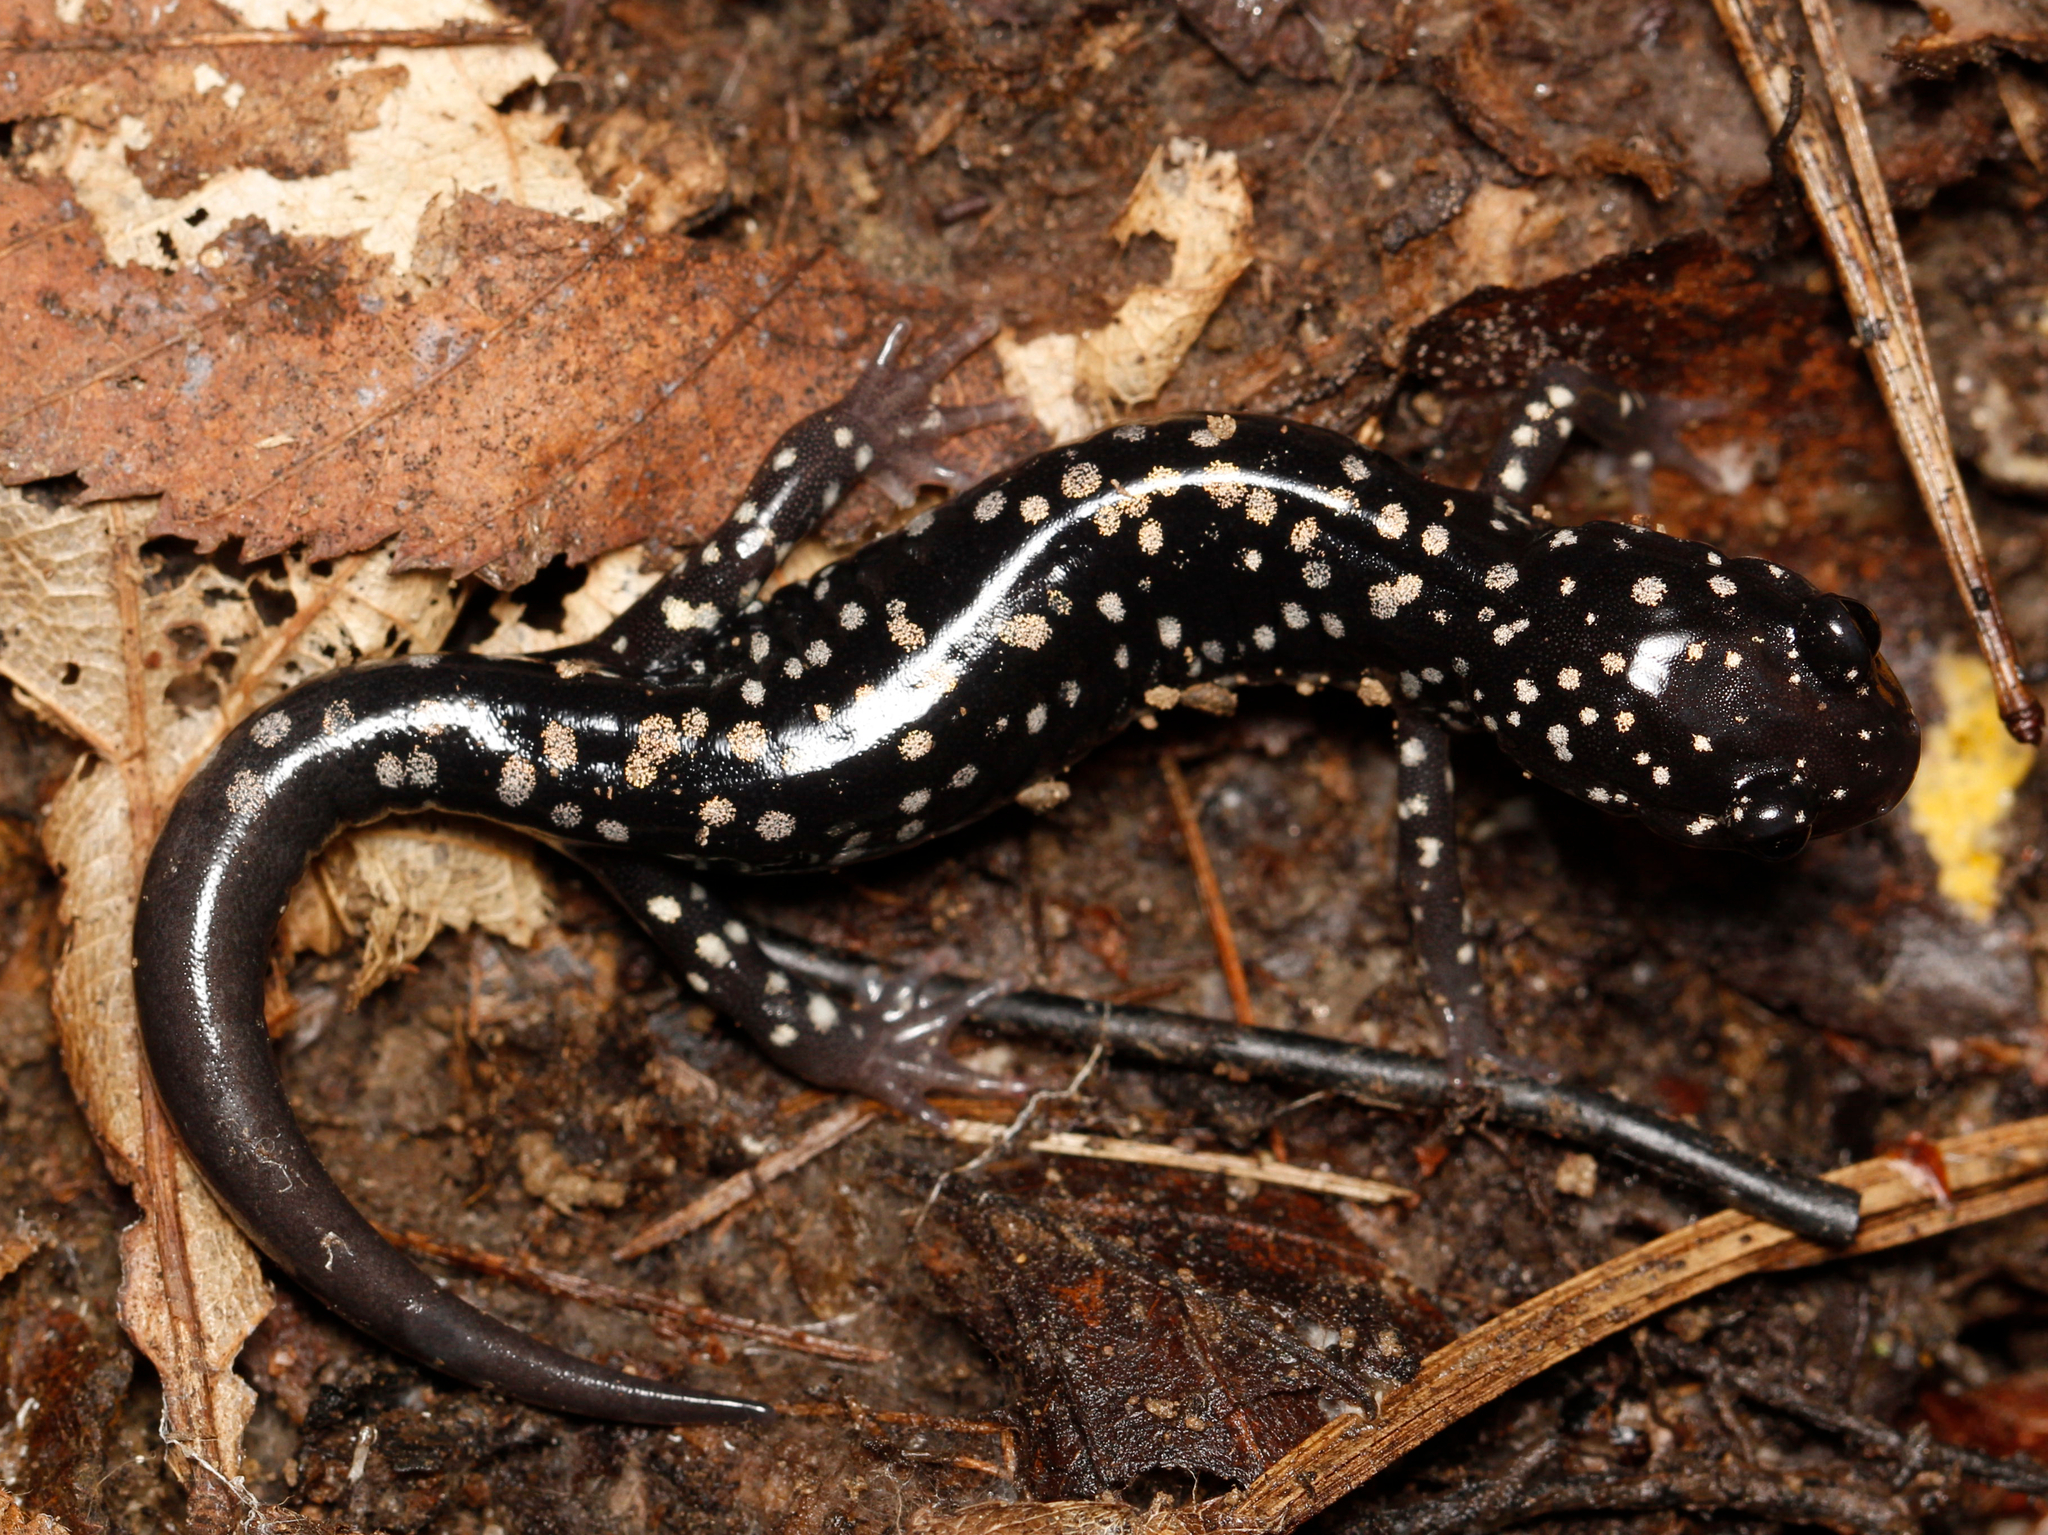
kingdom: Animalia
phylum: Chordata
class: Amphibia
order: Caudata
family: Plethodontidae
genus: Plethodon
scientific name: Plethodon glutinosus
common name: Northern slimy salamander
